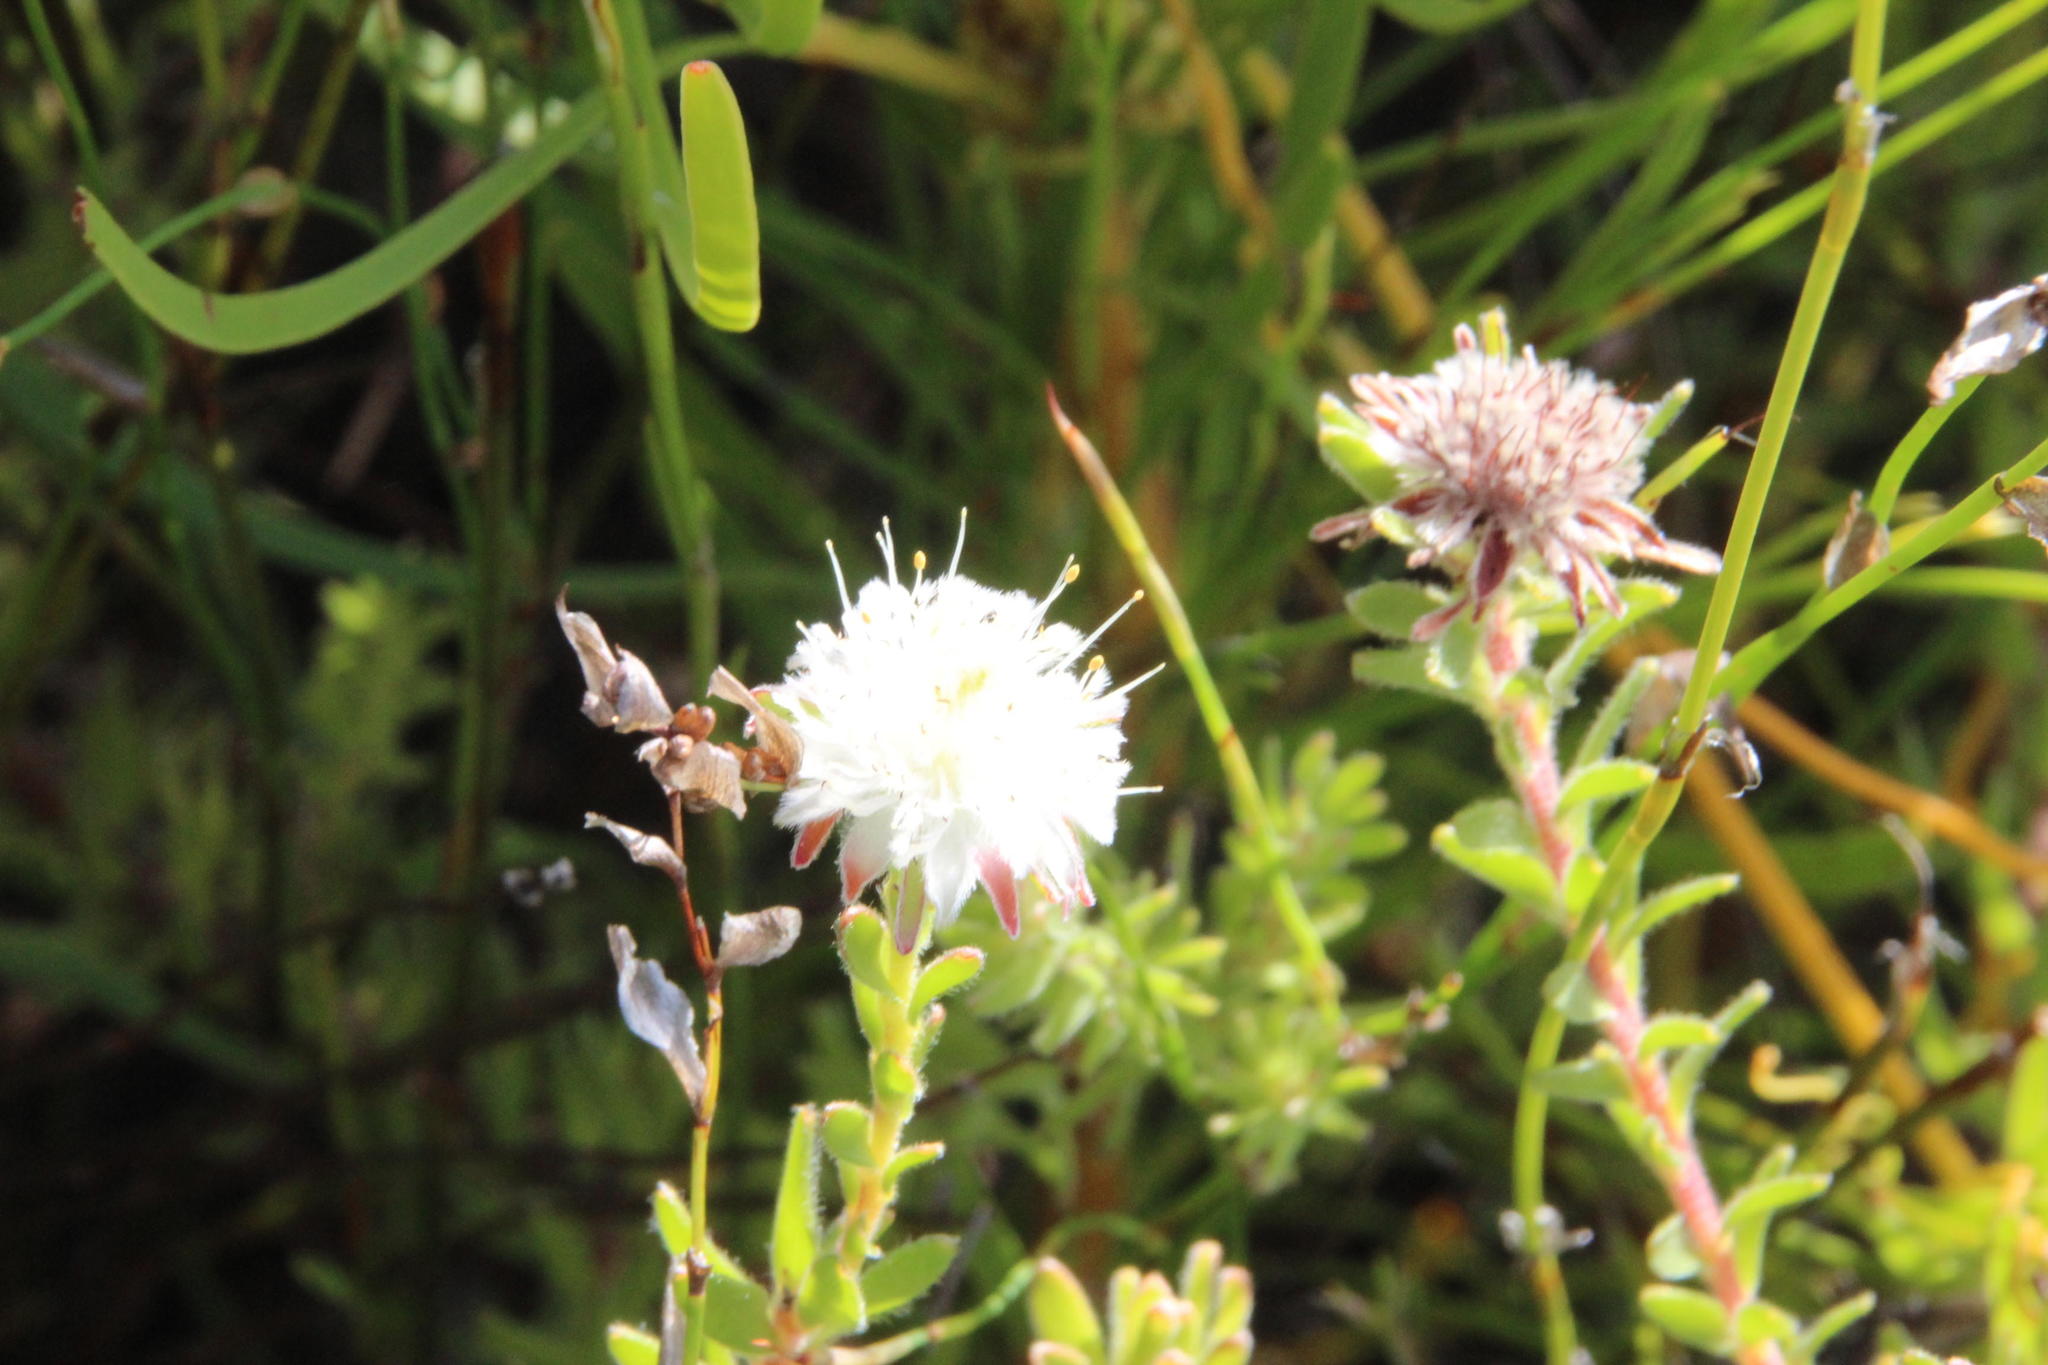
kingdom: Plantae
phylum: Tracheophyta
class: Magnoliopsida
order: Proteales
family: Proteaceae
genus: Diastella
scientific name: Diastella fraterna
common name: Palmiet silkypuff
